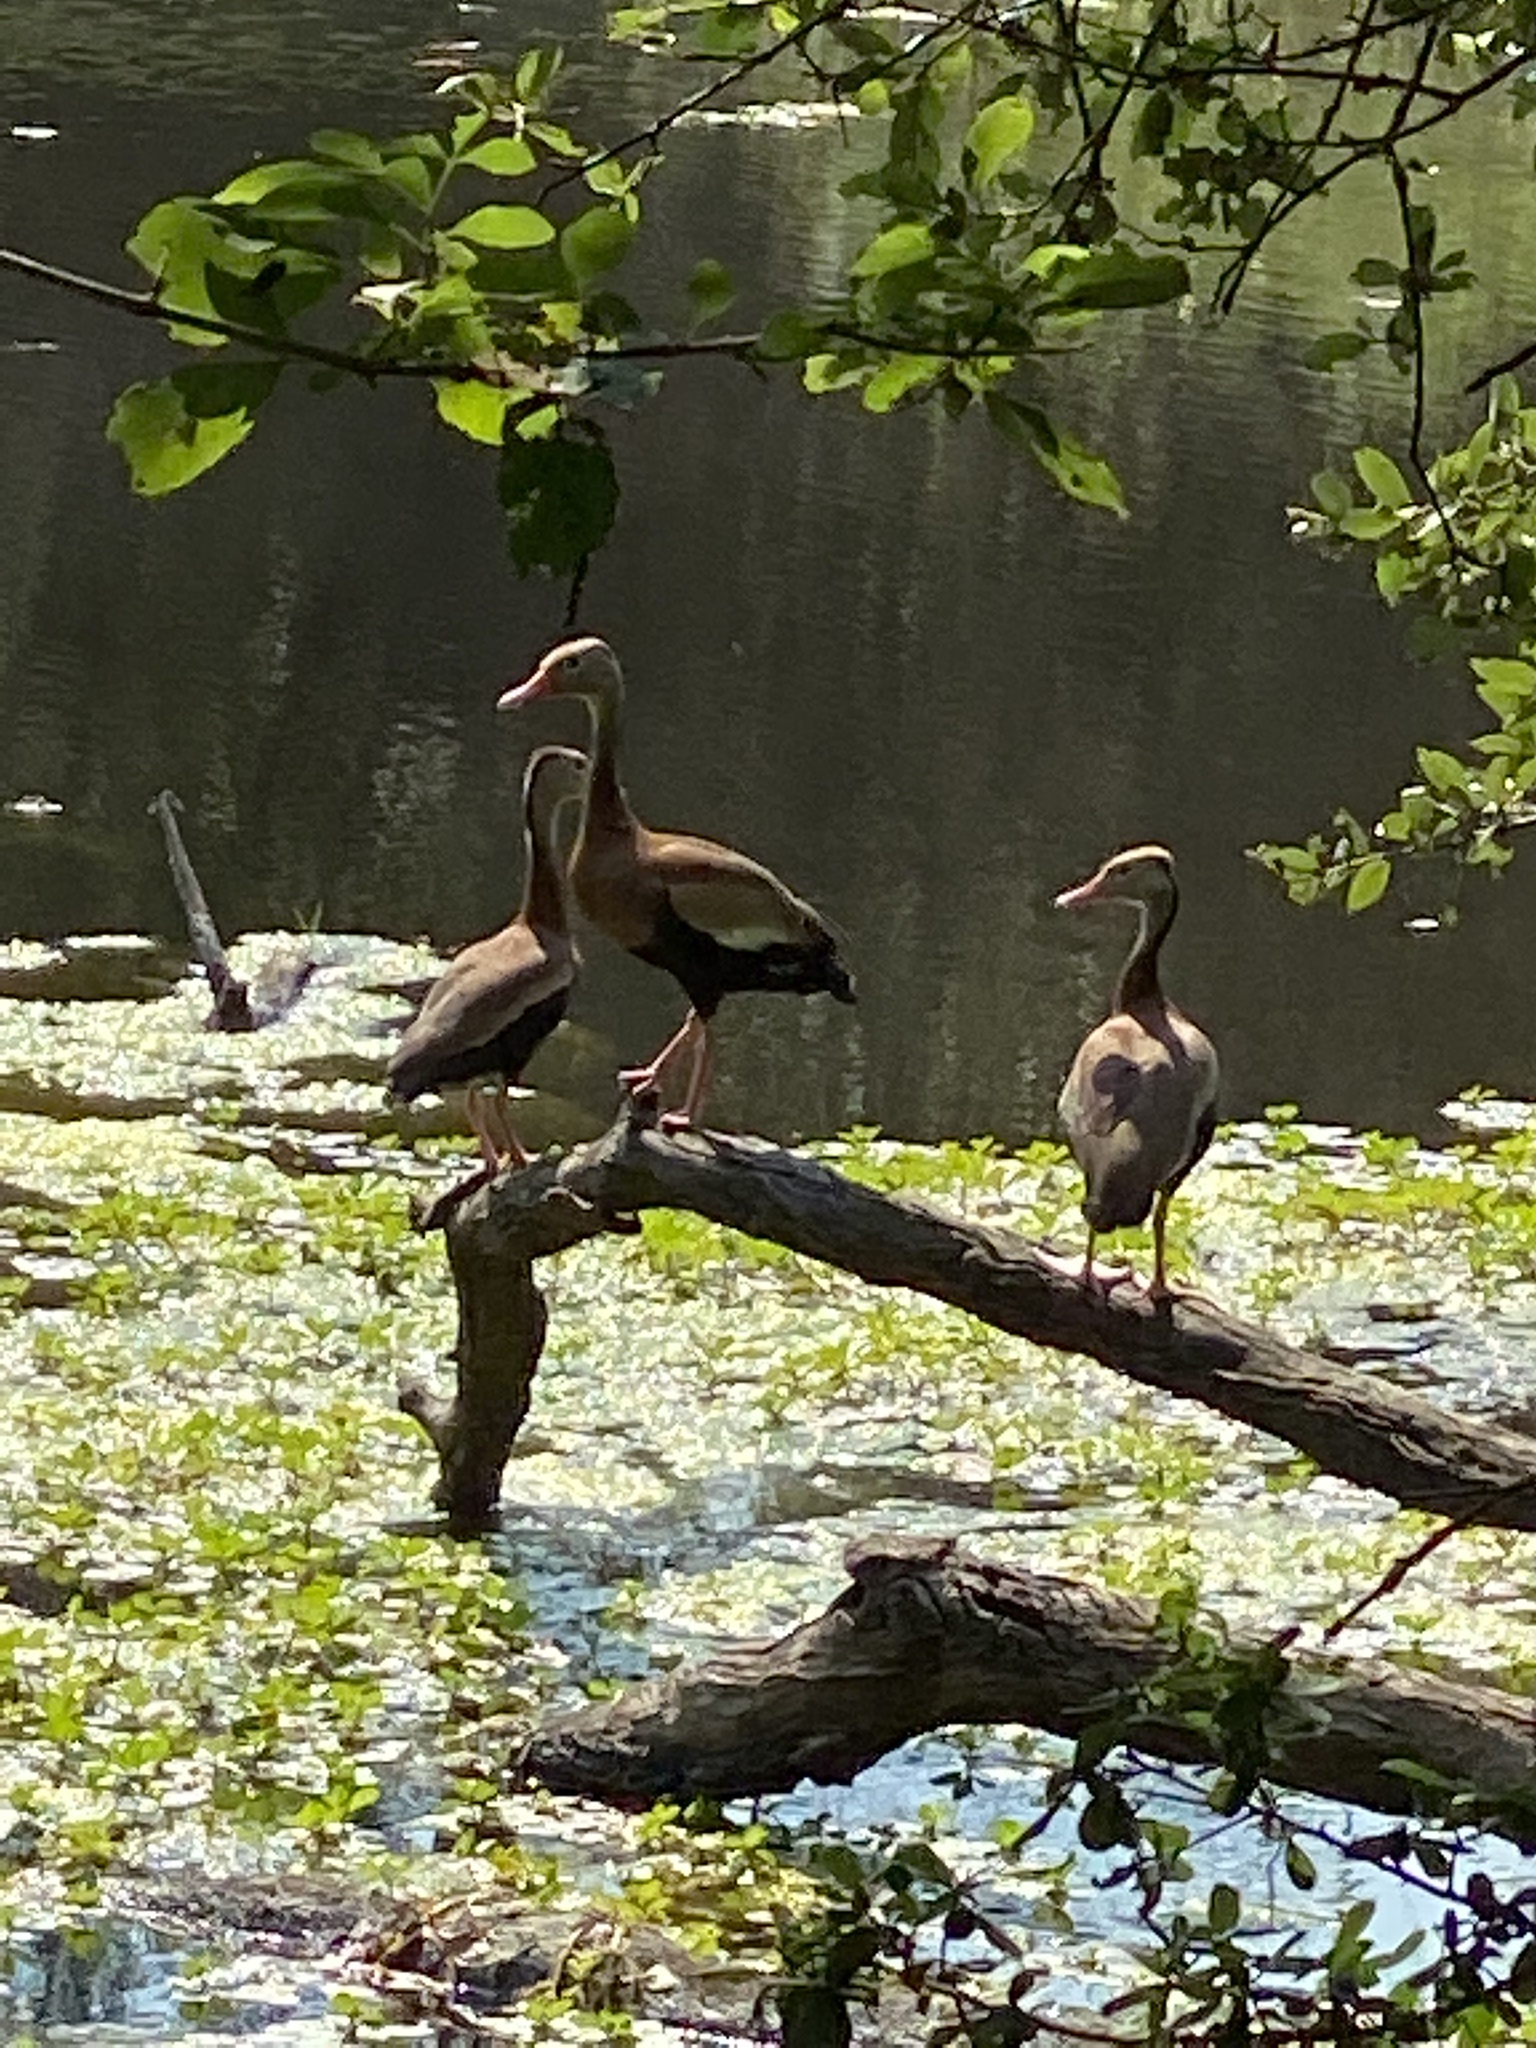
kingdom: Animalia
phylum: Chordata
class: Aves
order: Anseriformes
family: Anatidae
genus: Dendrocygna
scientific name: Dendrocygna autumnalis
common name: Black-bellied whistling duck
